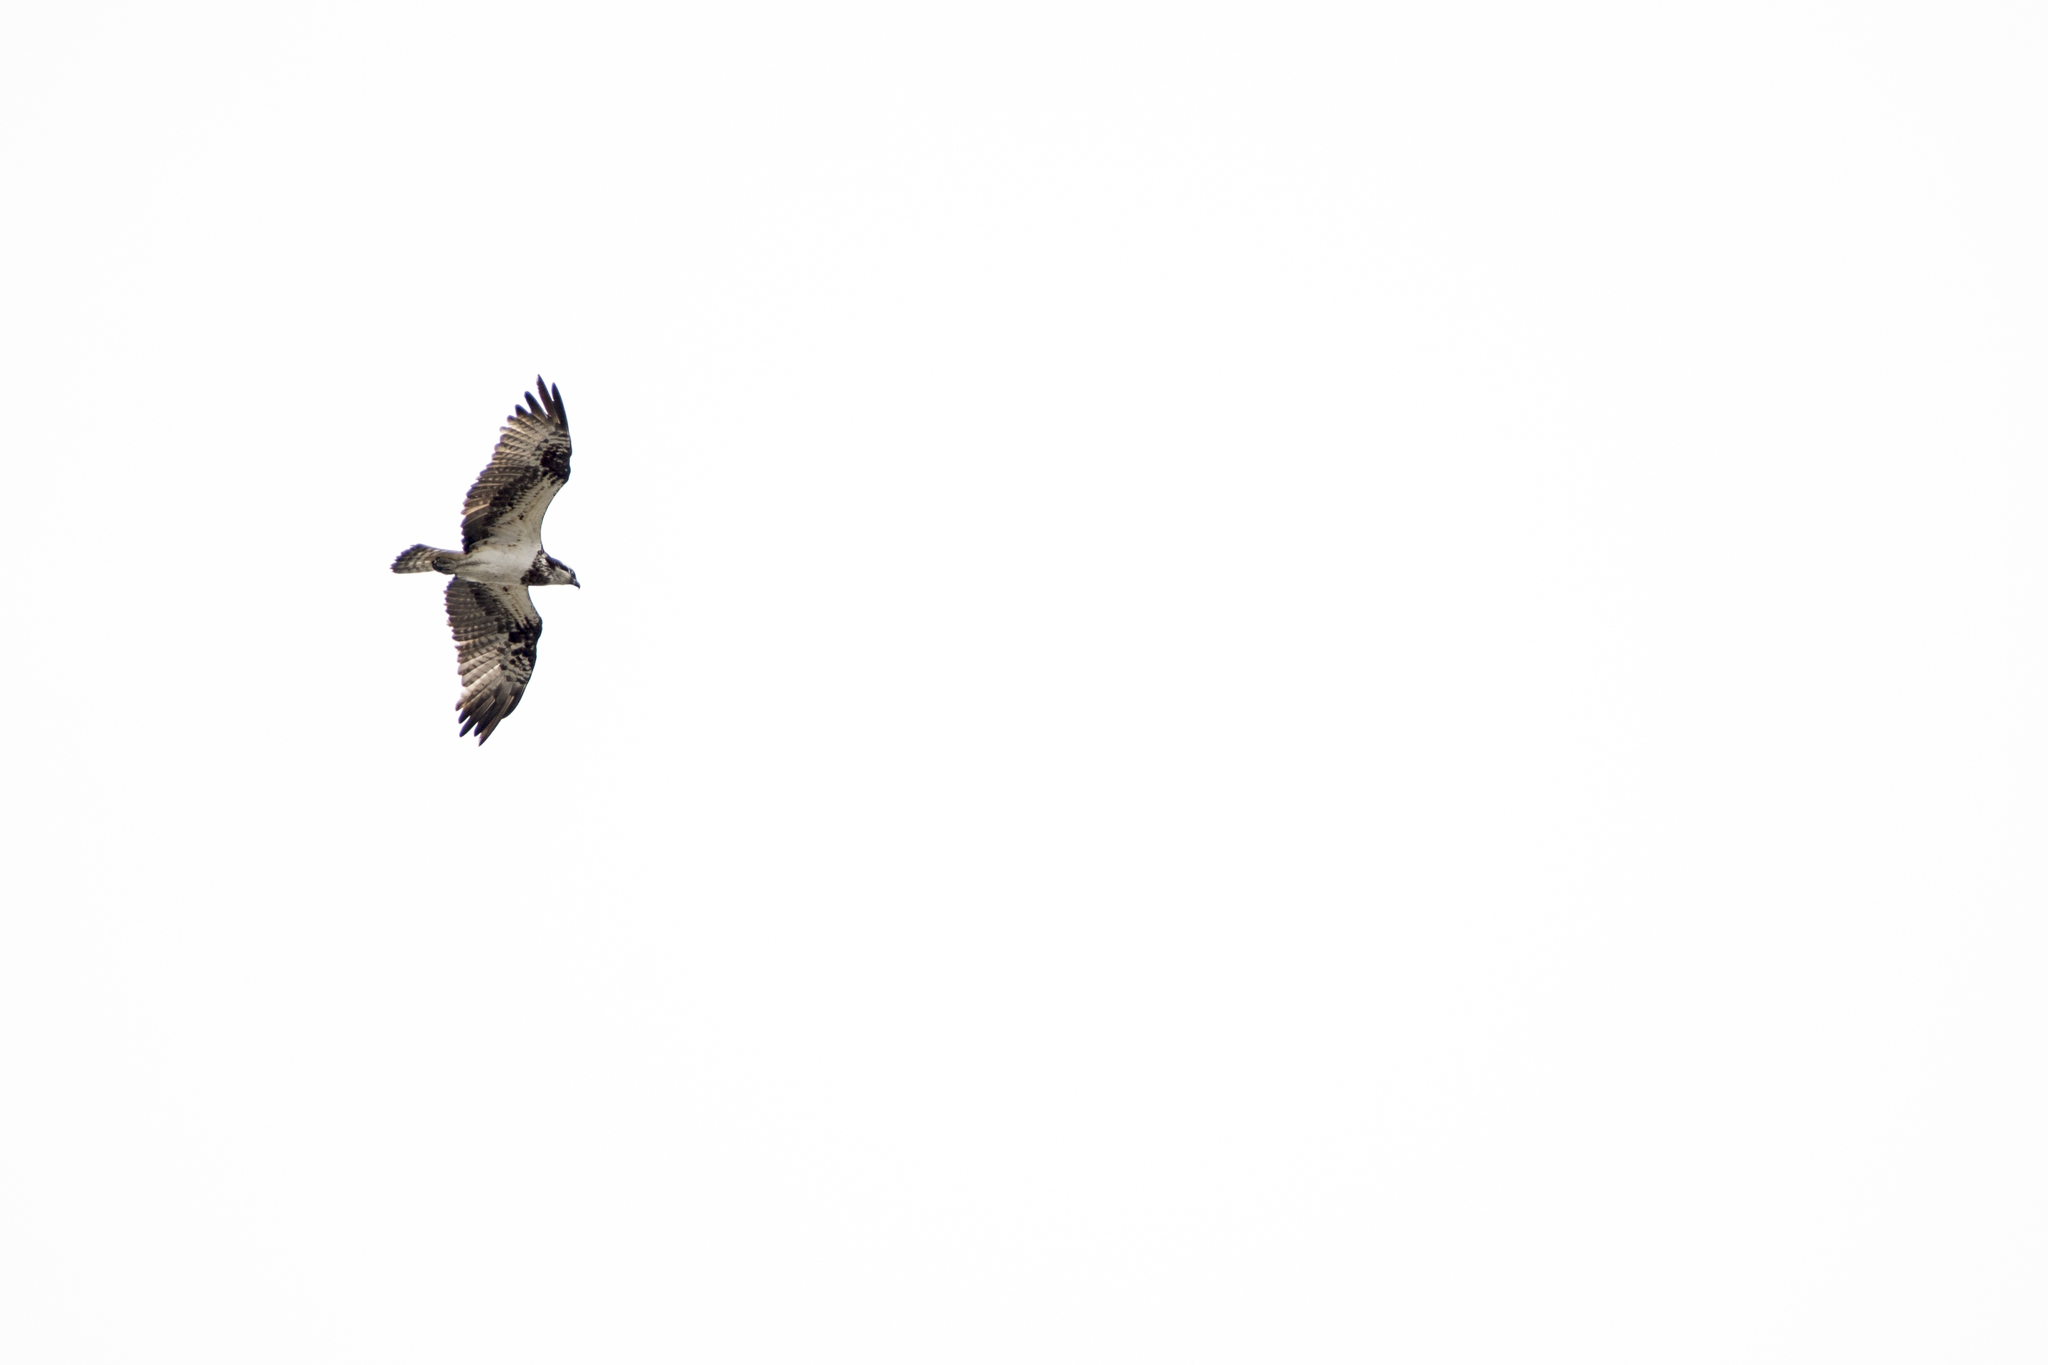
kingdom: Animalia
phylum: Chordata
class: Aves
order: Accipitriformes
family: Pandionidae
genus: Pandion
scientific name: Pandion haliaetus
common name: Osprey
